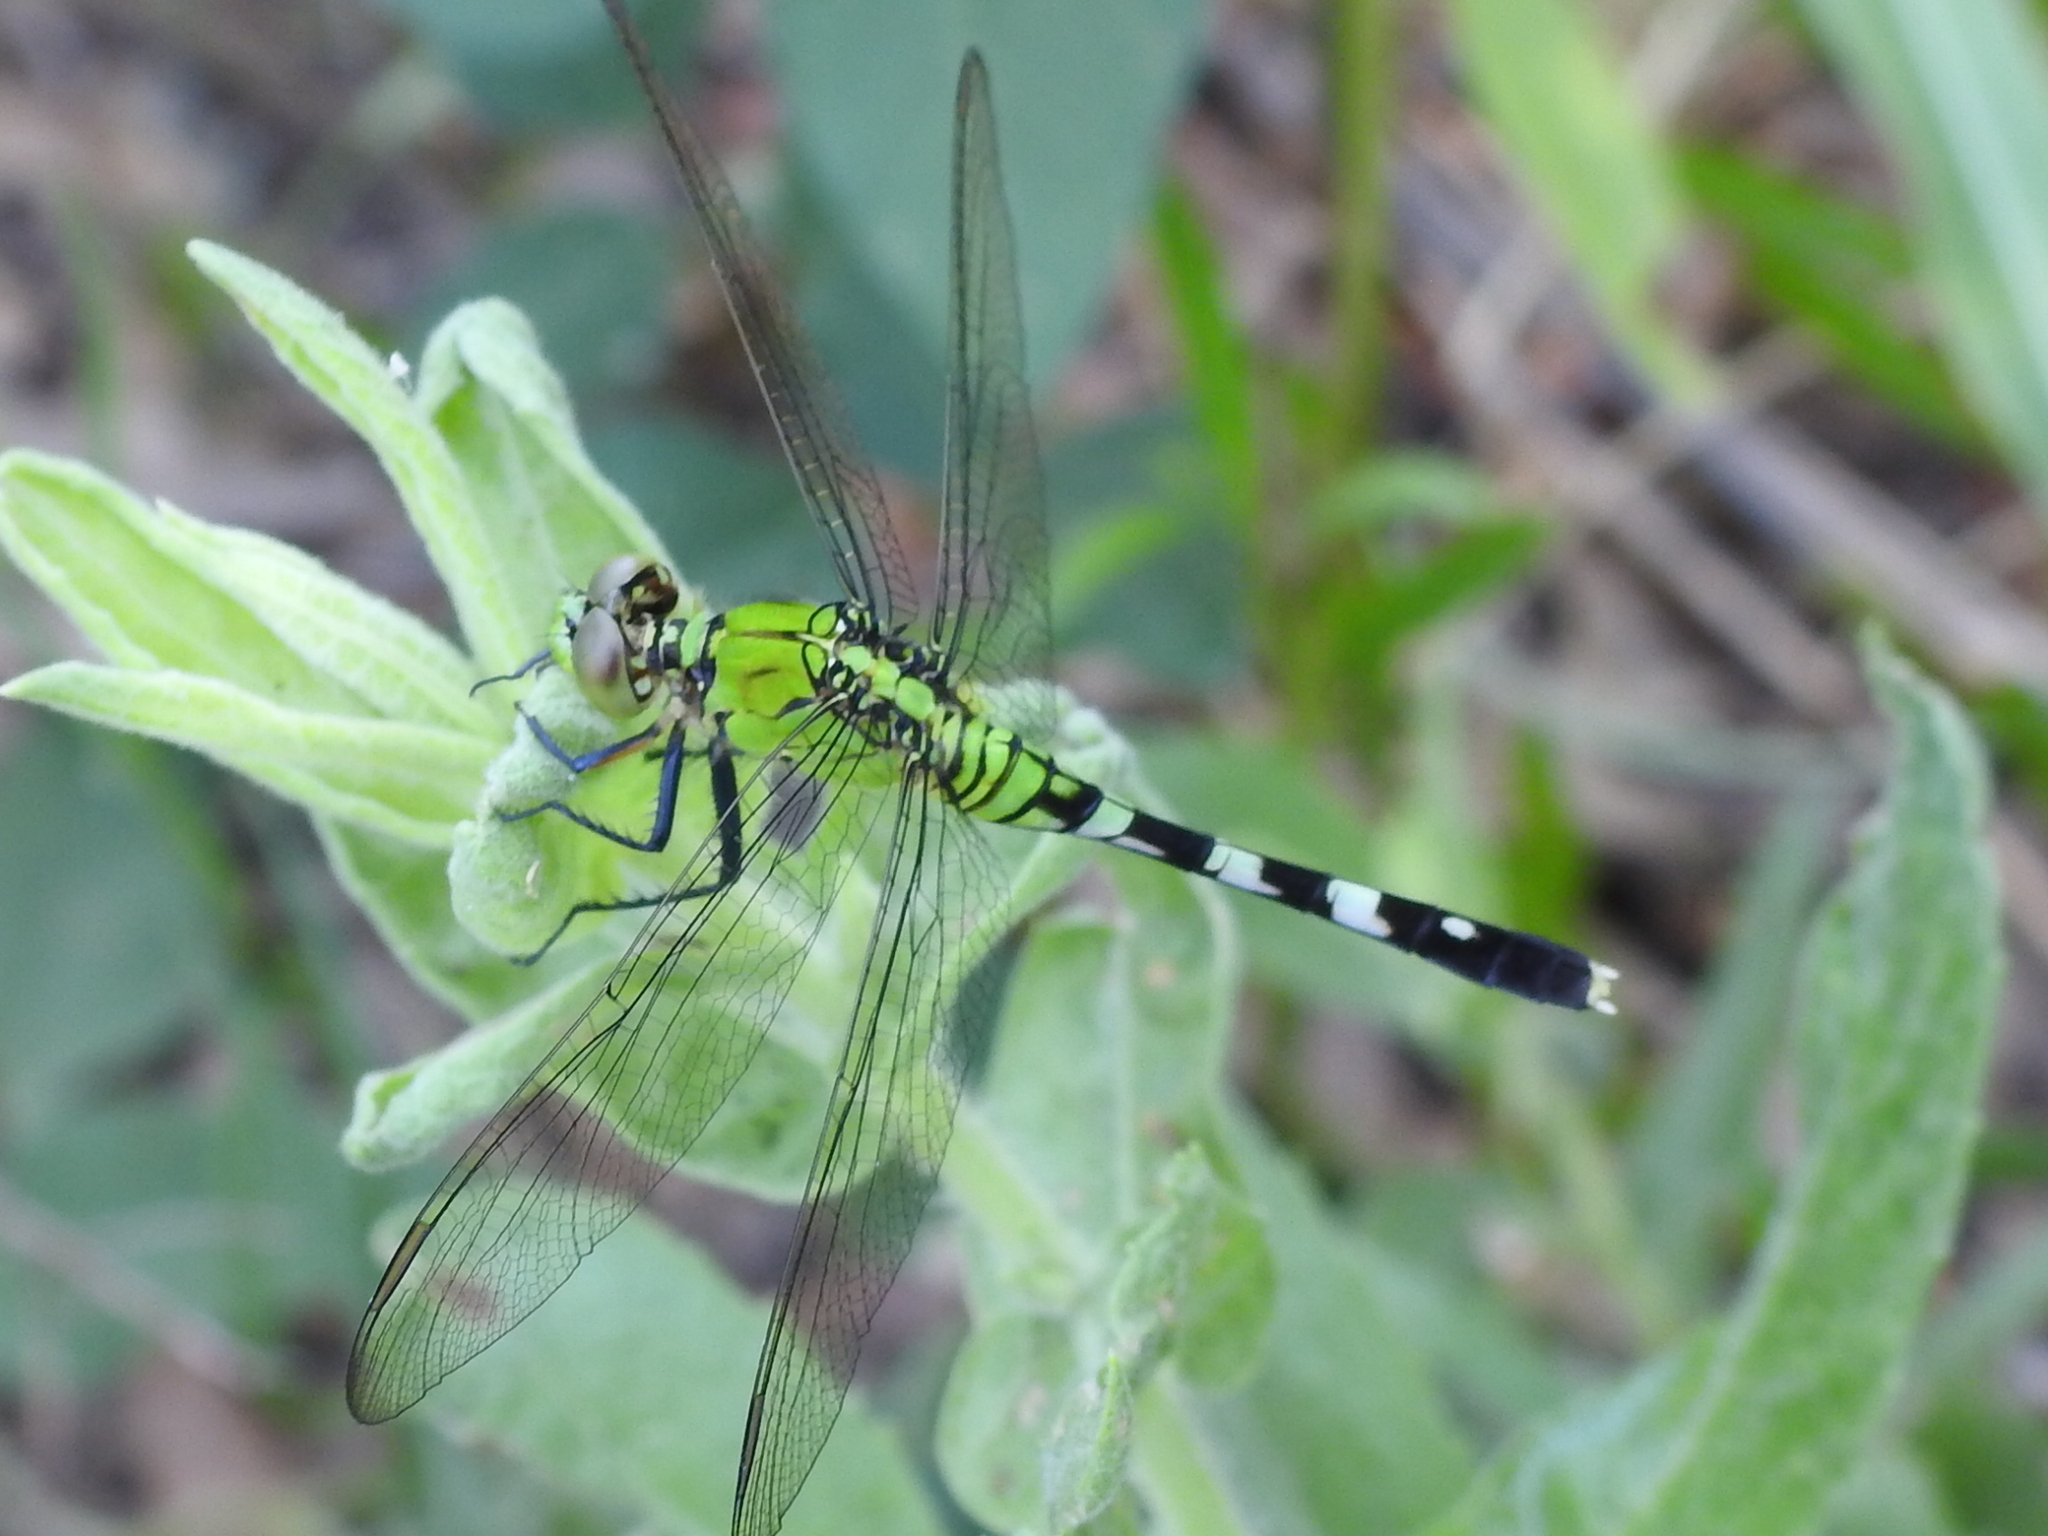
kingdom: Animalia
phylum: Arthropoda
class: Insecta
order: Odonata
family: Libellulidae
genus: Erythemis
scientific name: Erythemis simplicicollis
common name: Eastern pondhawk
